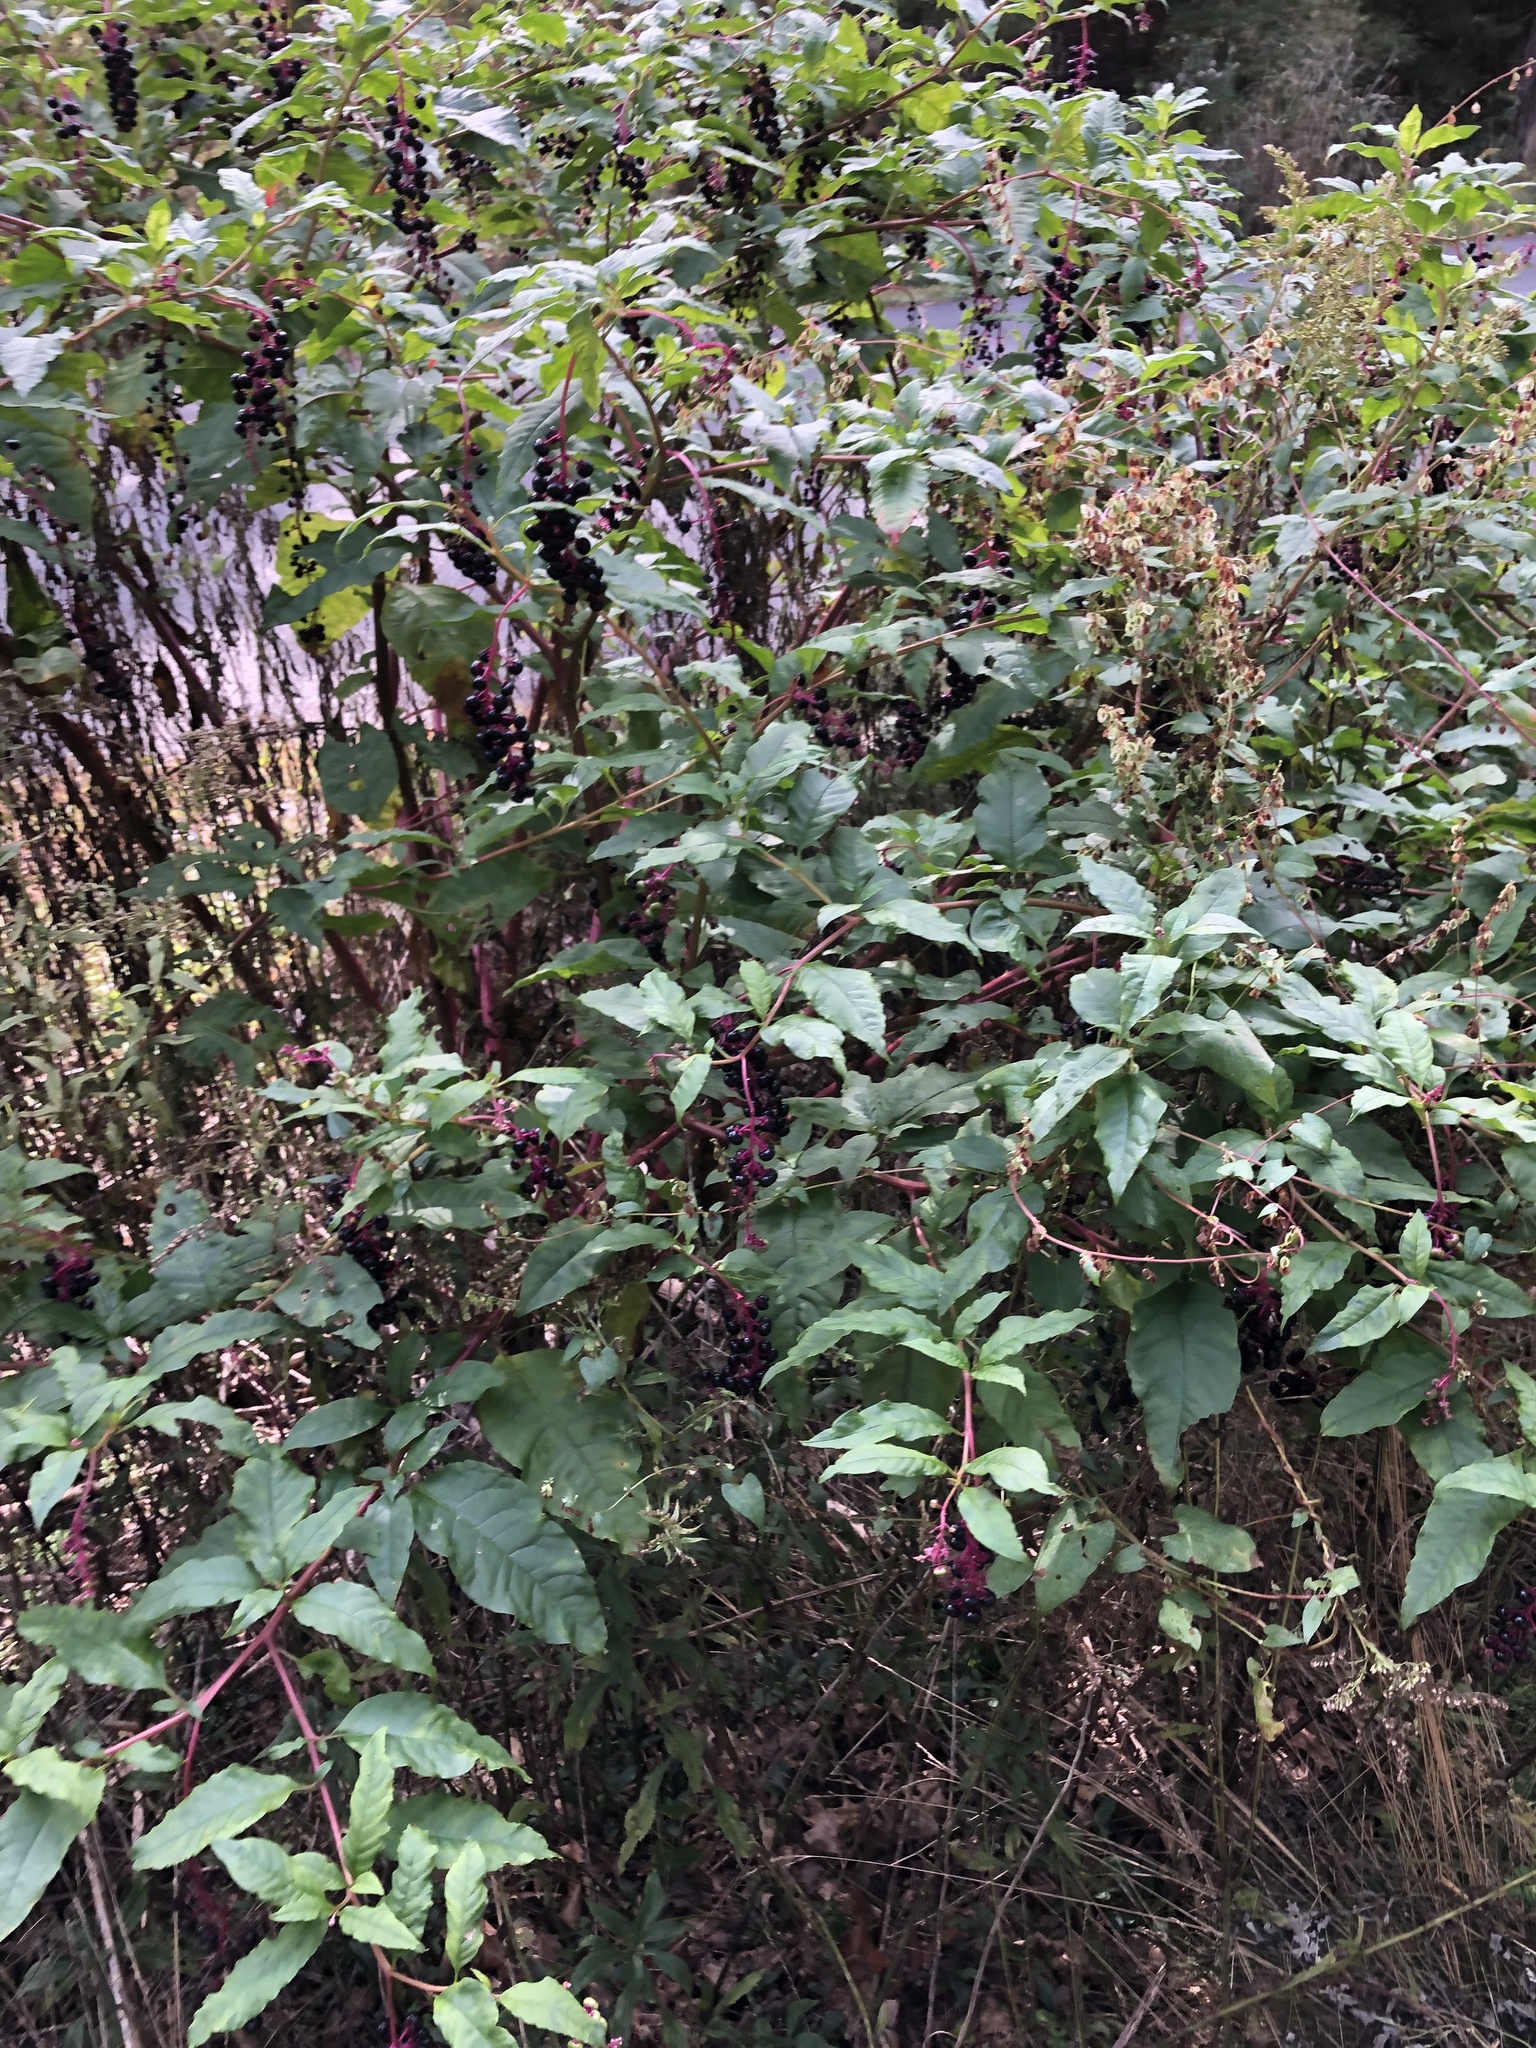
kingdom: Viruses
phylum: Pisuviricota
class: Stelpaviricetes
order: Patatavirales
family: Potyviridae
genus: Potyvirus
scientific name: Potyvirus Pokeweed mosaic virus
